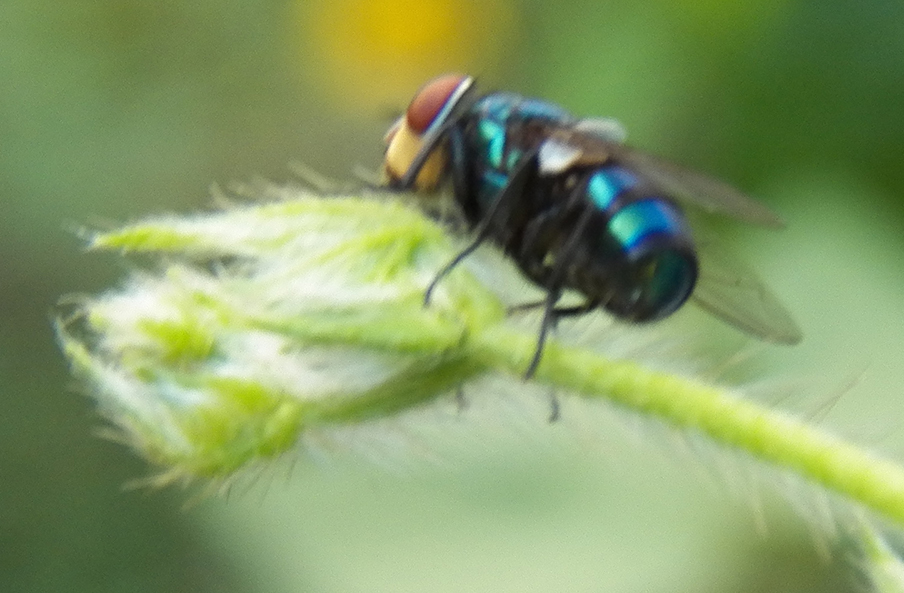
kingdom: Animalia
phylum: Arthropoda
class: Insecta
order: Diptera
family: Calliphoridae
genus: Chrysomya
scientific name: Chrysomya megacephala
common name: Blow fly
